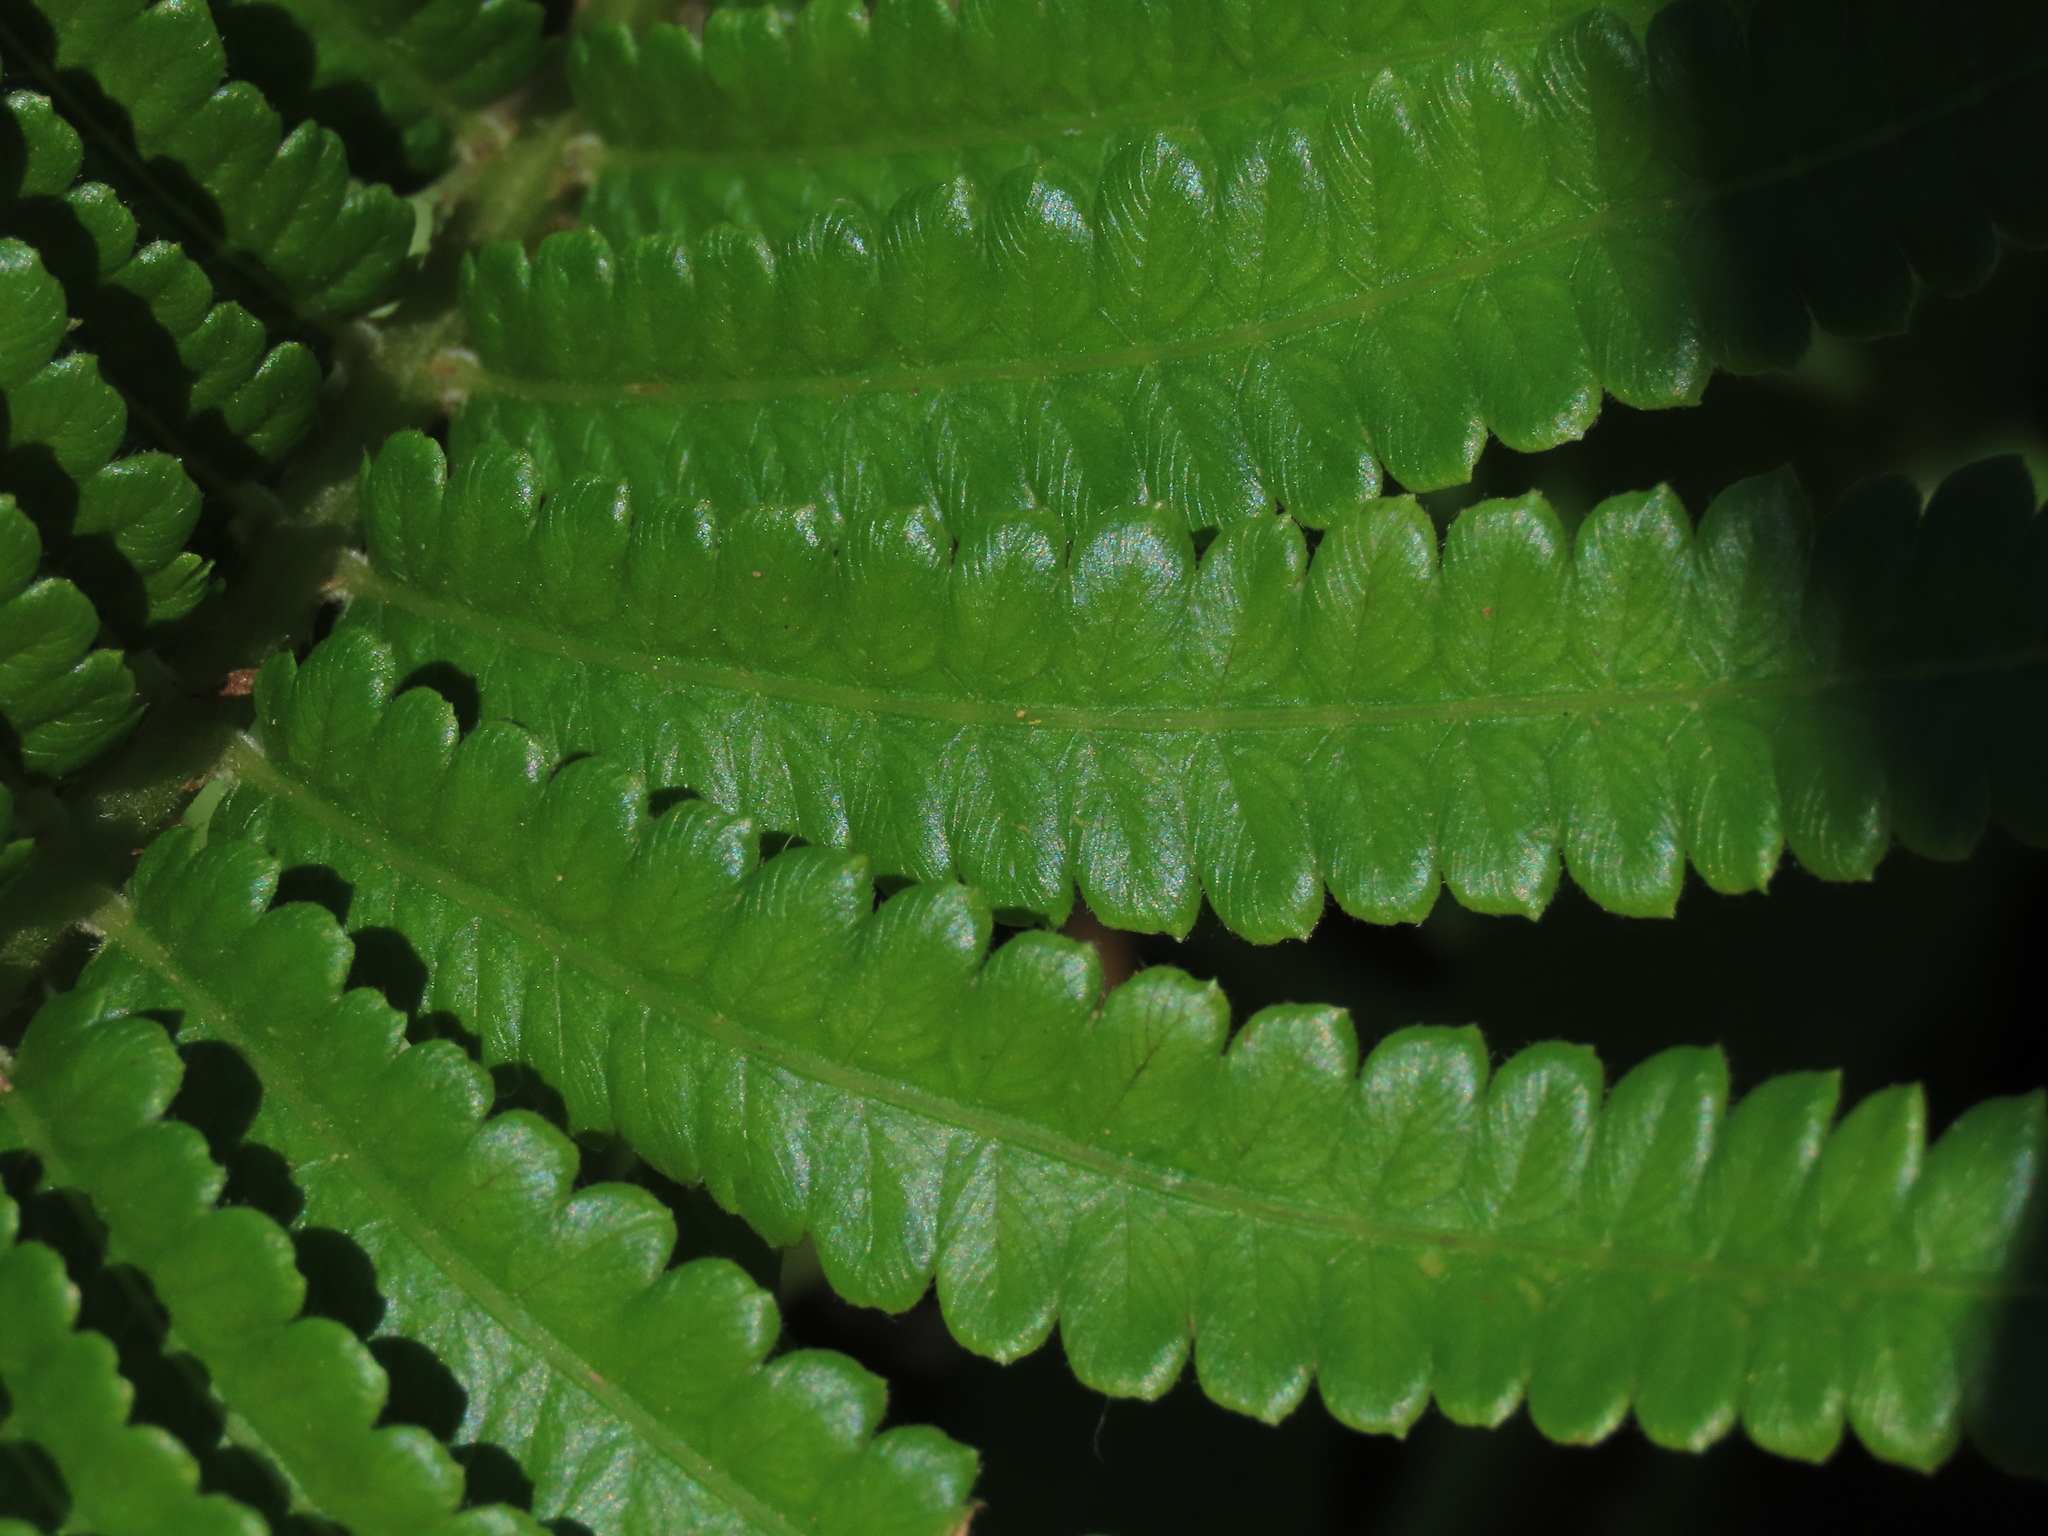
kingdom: Plantae
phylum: Tracheophyta
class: Polypodiopsida
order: Polypodiales
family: Thelypteridaceae
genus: Cyclosorus
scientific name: Cyclosorus interruptus
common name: Neke fern
